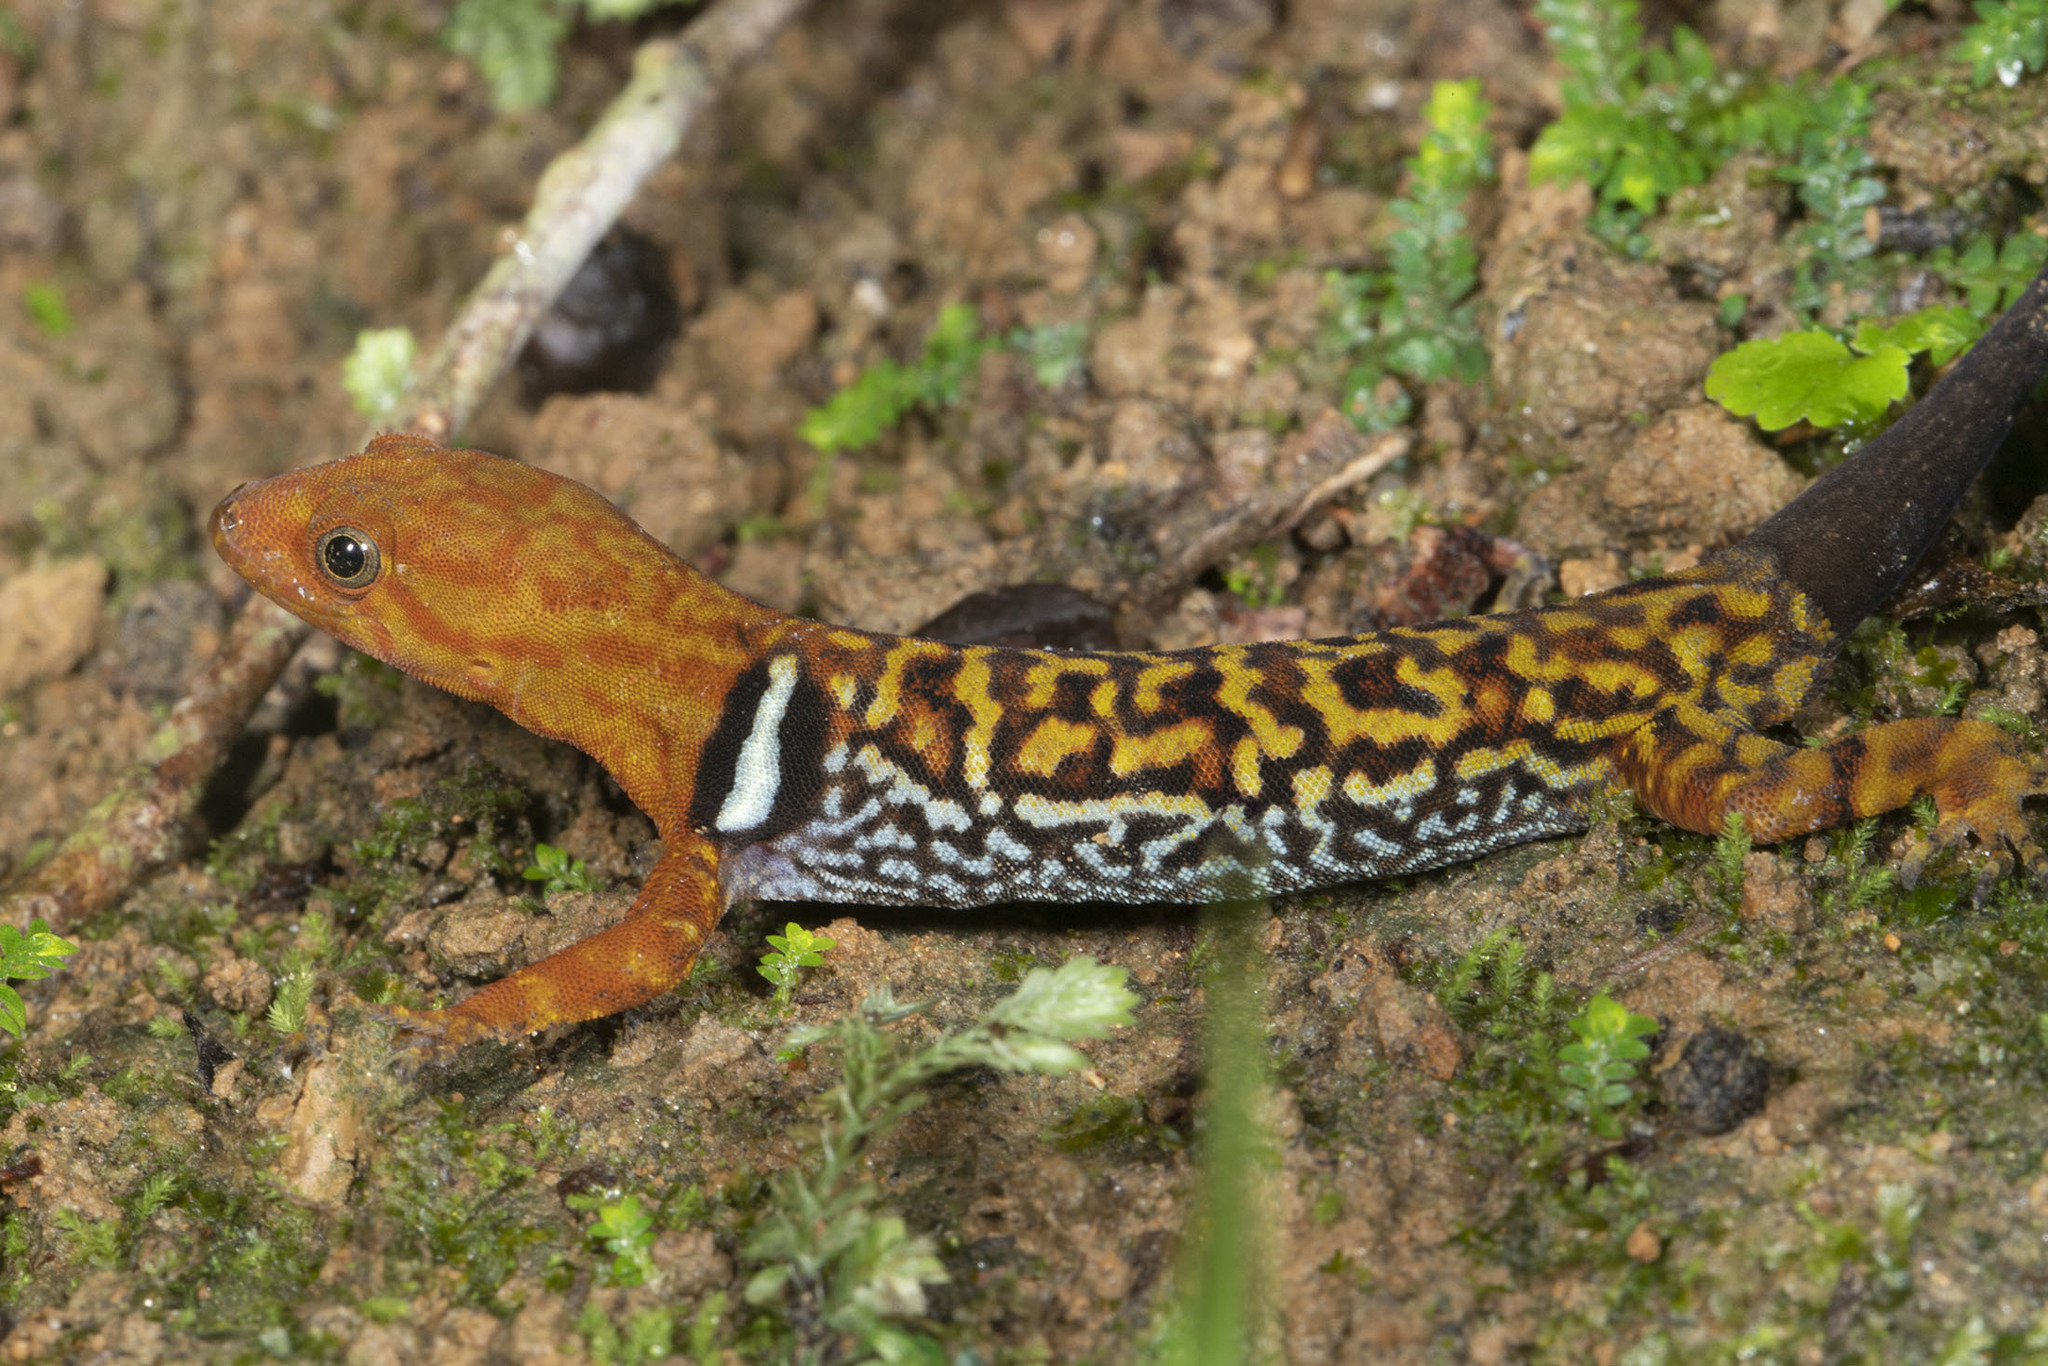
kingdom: Animalia
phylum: Chordata
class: Squamata
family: Sphaerodactylidae
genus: Gonatodes
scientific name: Gonatodes concinnatus
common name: O'shaughnessy's gecko
